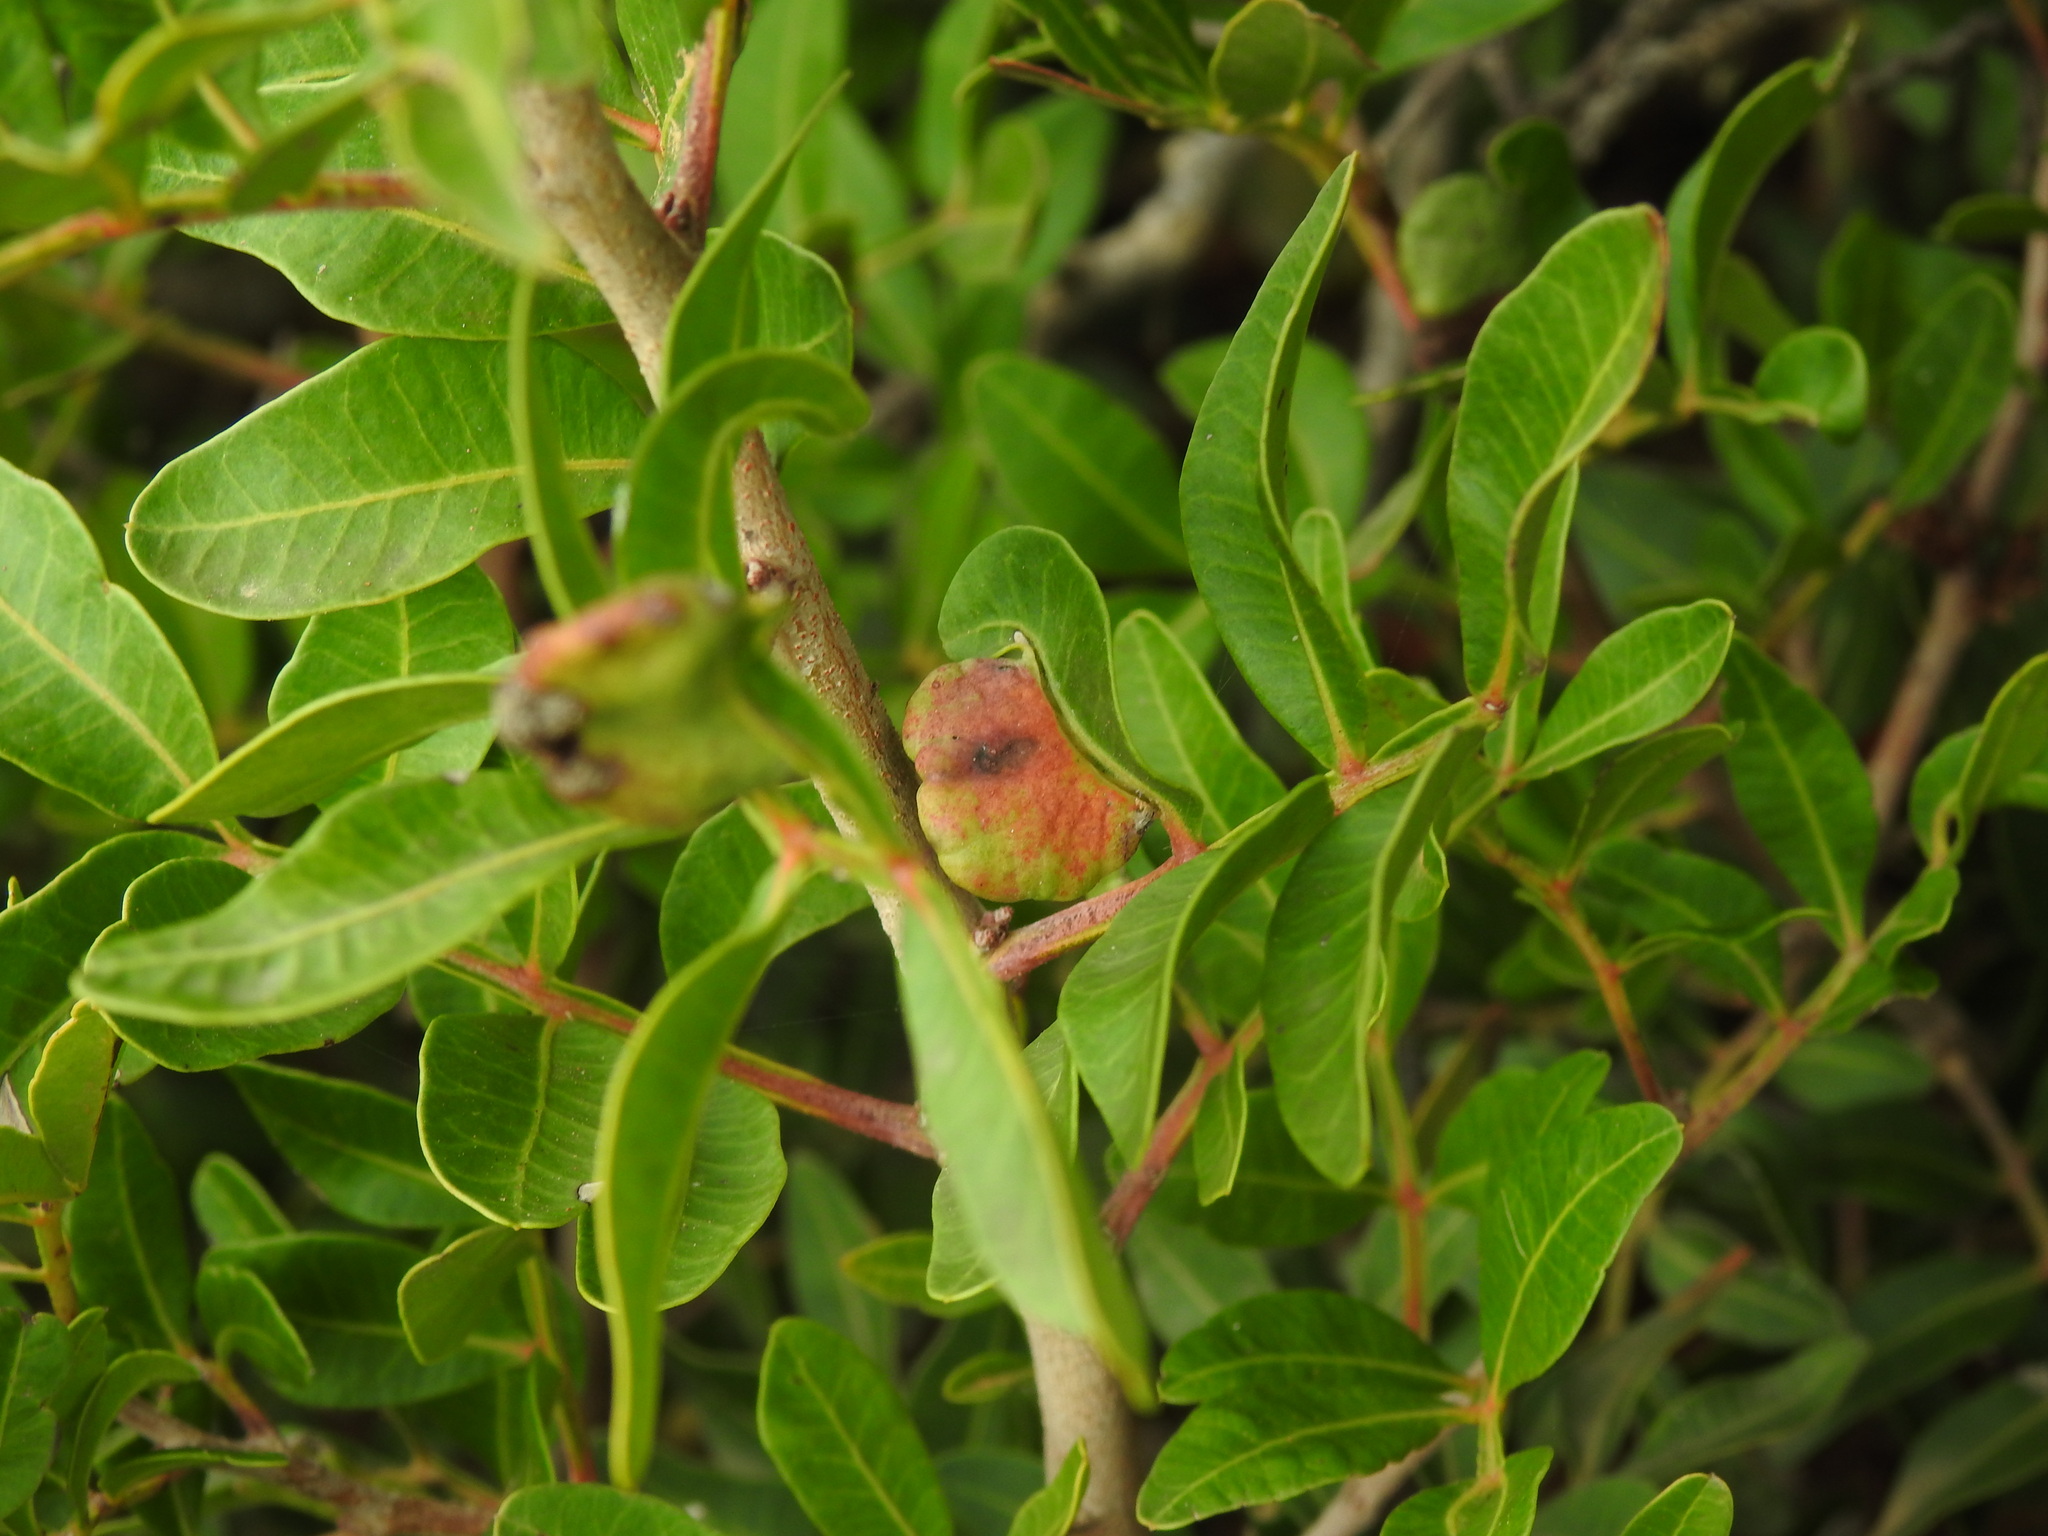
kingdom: Animalia
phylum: Arthropoda
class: Insecta
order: Hemiptera
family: Aphididae
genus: Aploneura
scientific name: Aploneura lentisci
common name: Mealy grass root aphid
